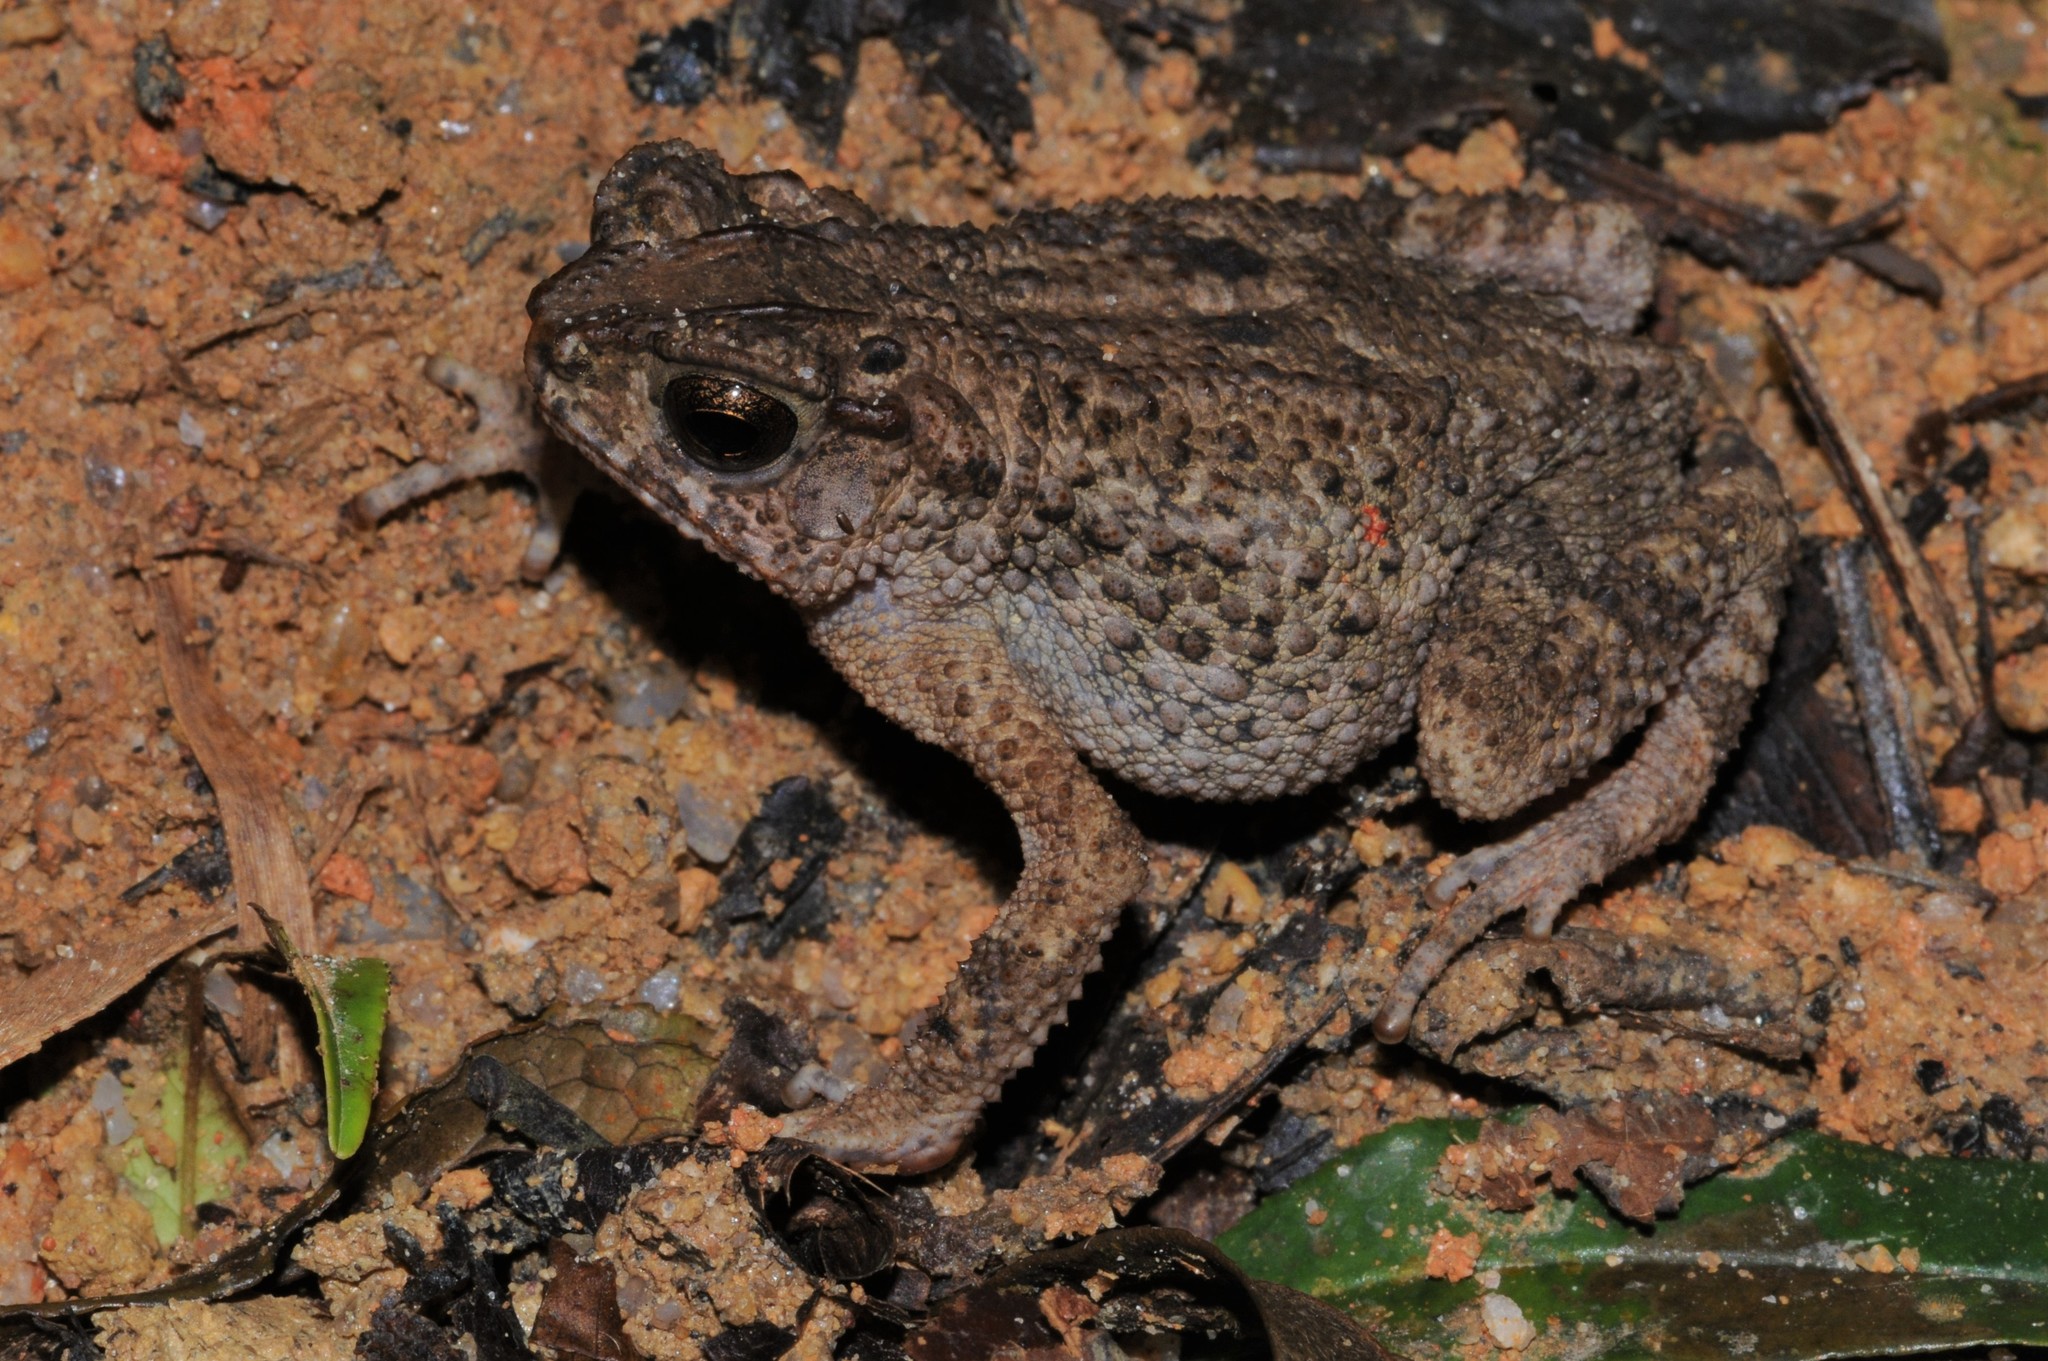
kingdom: Animalia
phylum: Chordata
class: Amphibia
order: Anura
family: Bufonidae
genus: Ingerophrynus
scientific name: Ingerophrynus parvus
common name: Dwarf lesser stream toad
